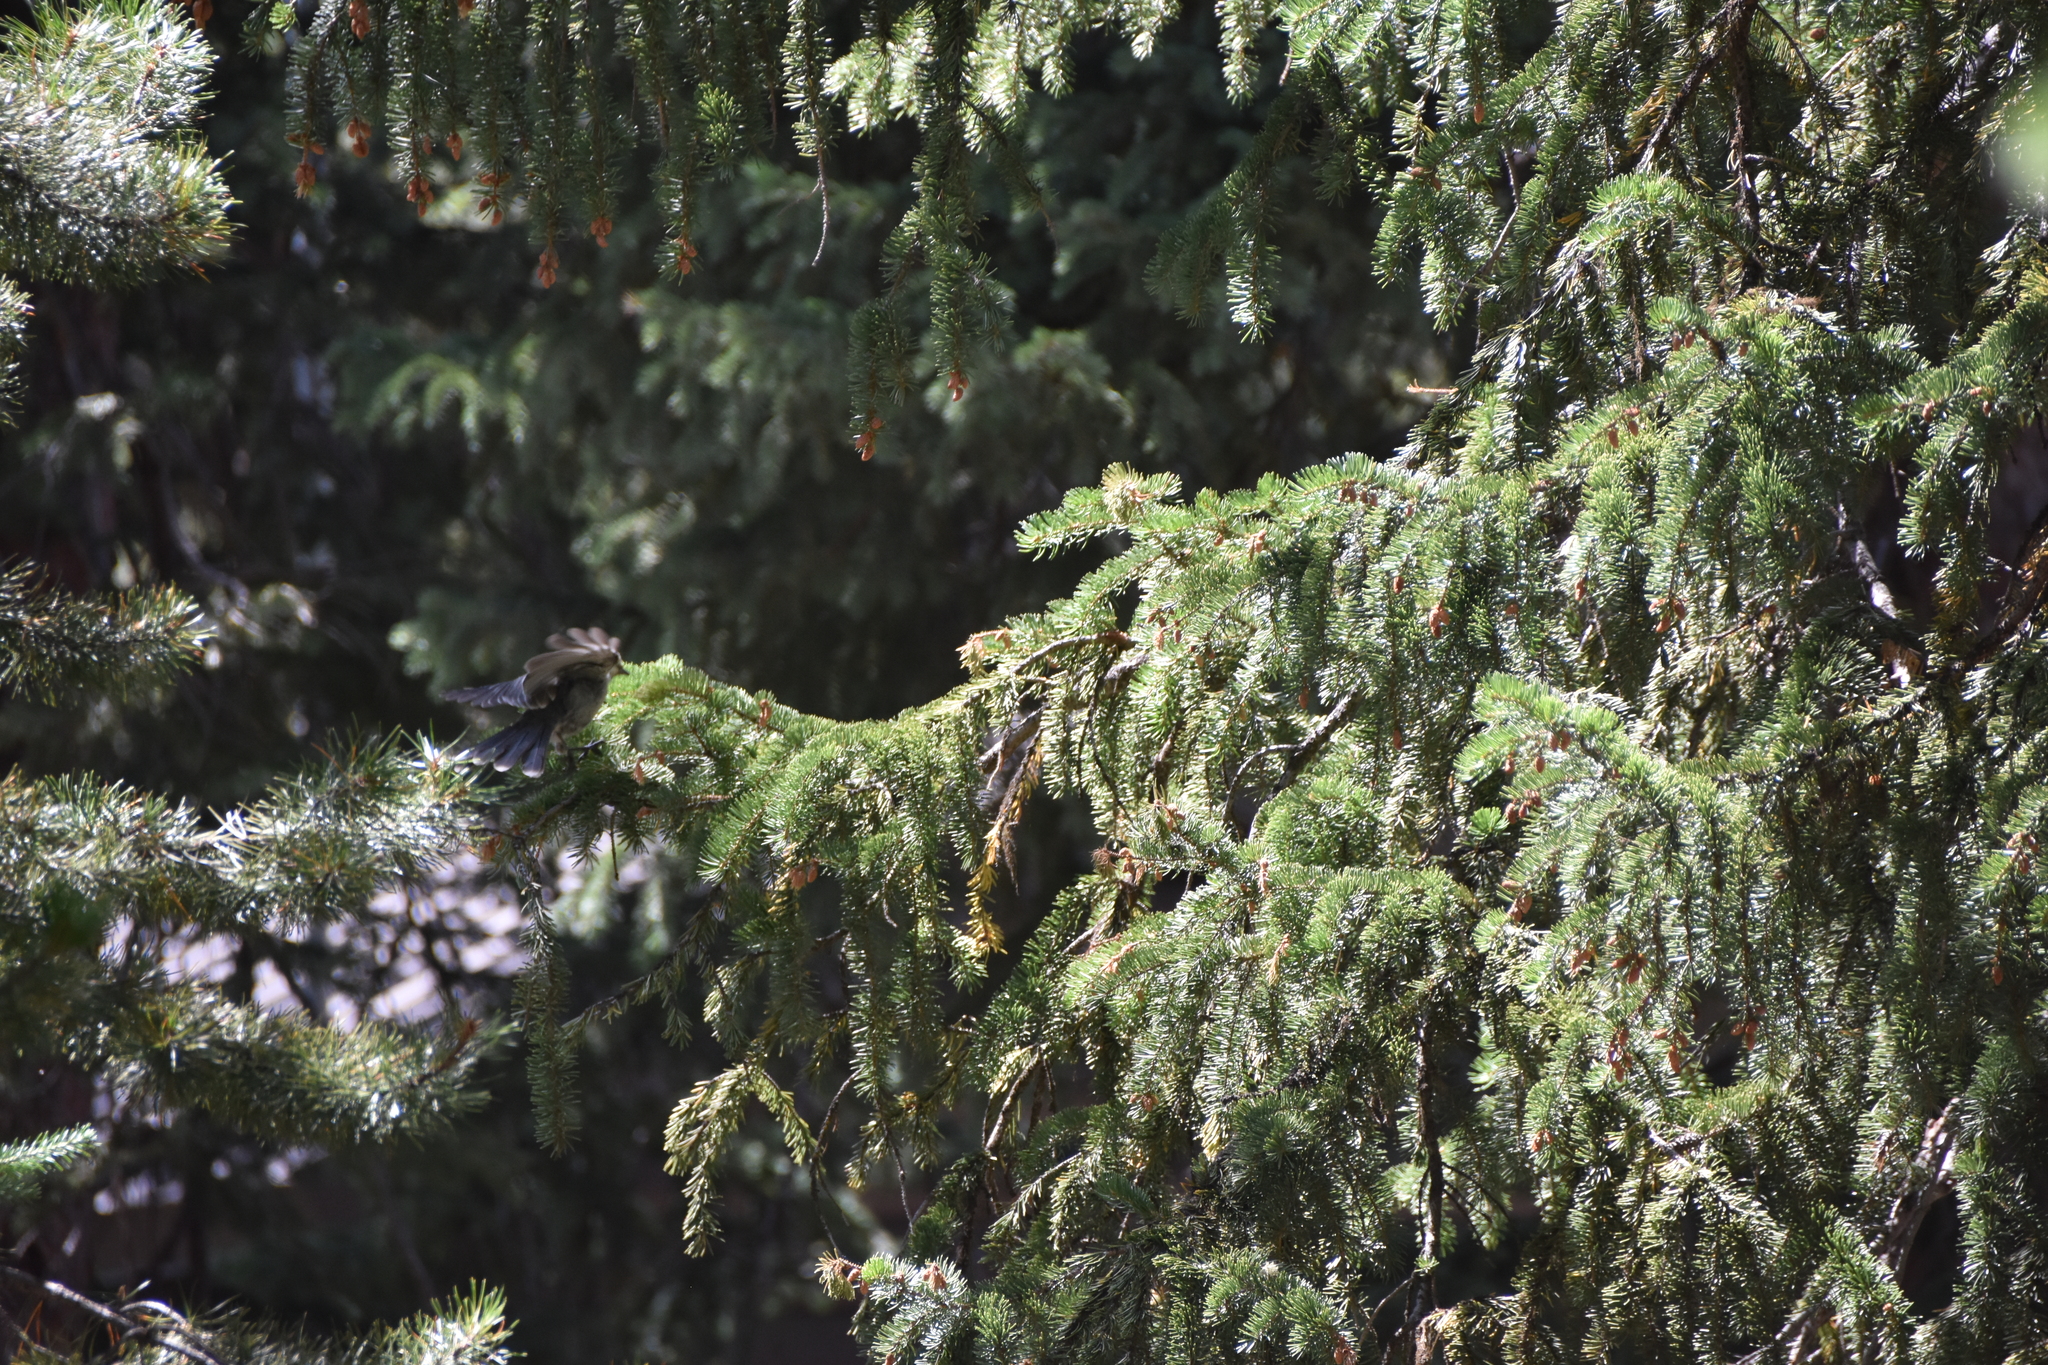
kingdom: Animalia
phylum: Chordata
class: Aves
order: Passeriformes
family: Corvidae
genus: Perisoreus
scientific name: Perisoreus canadensis
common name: Gray jay
